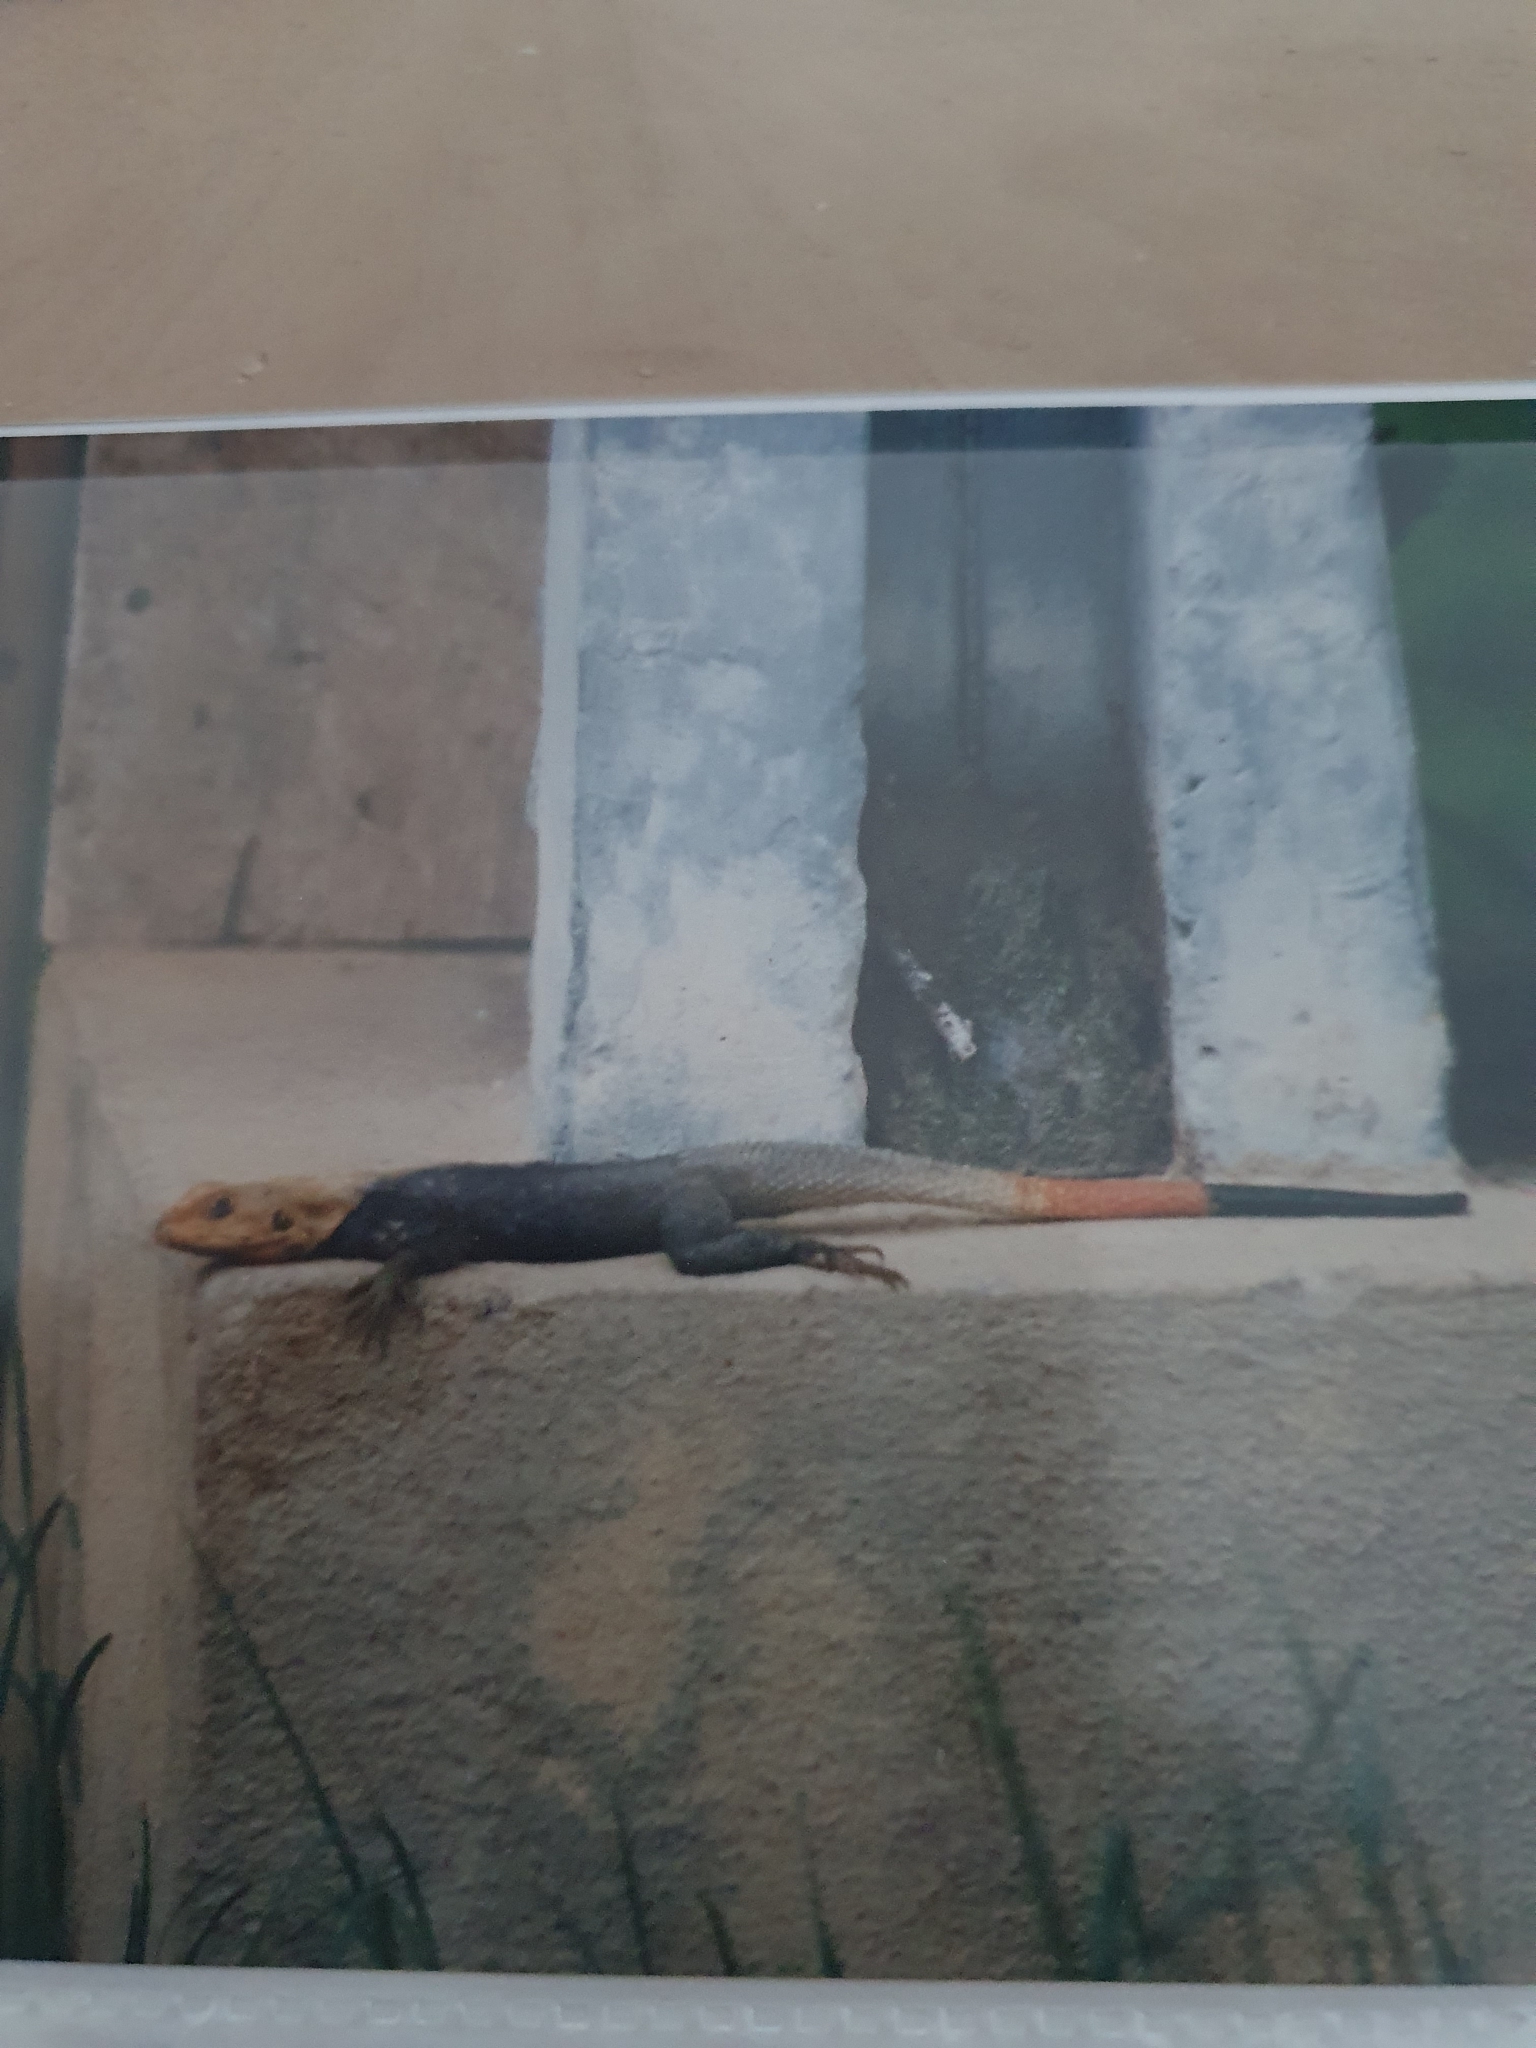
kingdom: Animalia
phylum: Chordata
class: Squamata
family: Agamidae
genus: Agama
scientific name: Agama picticauda
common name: Red-headed agama
